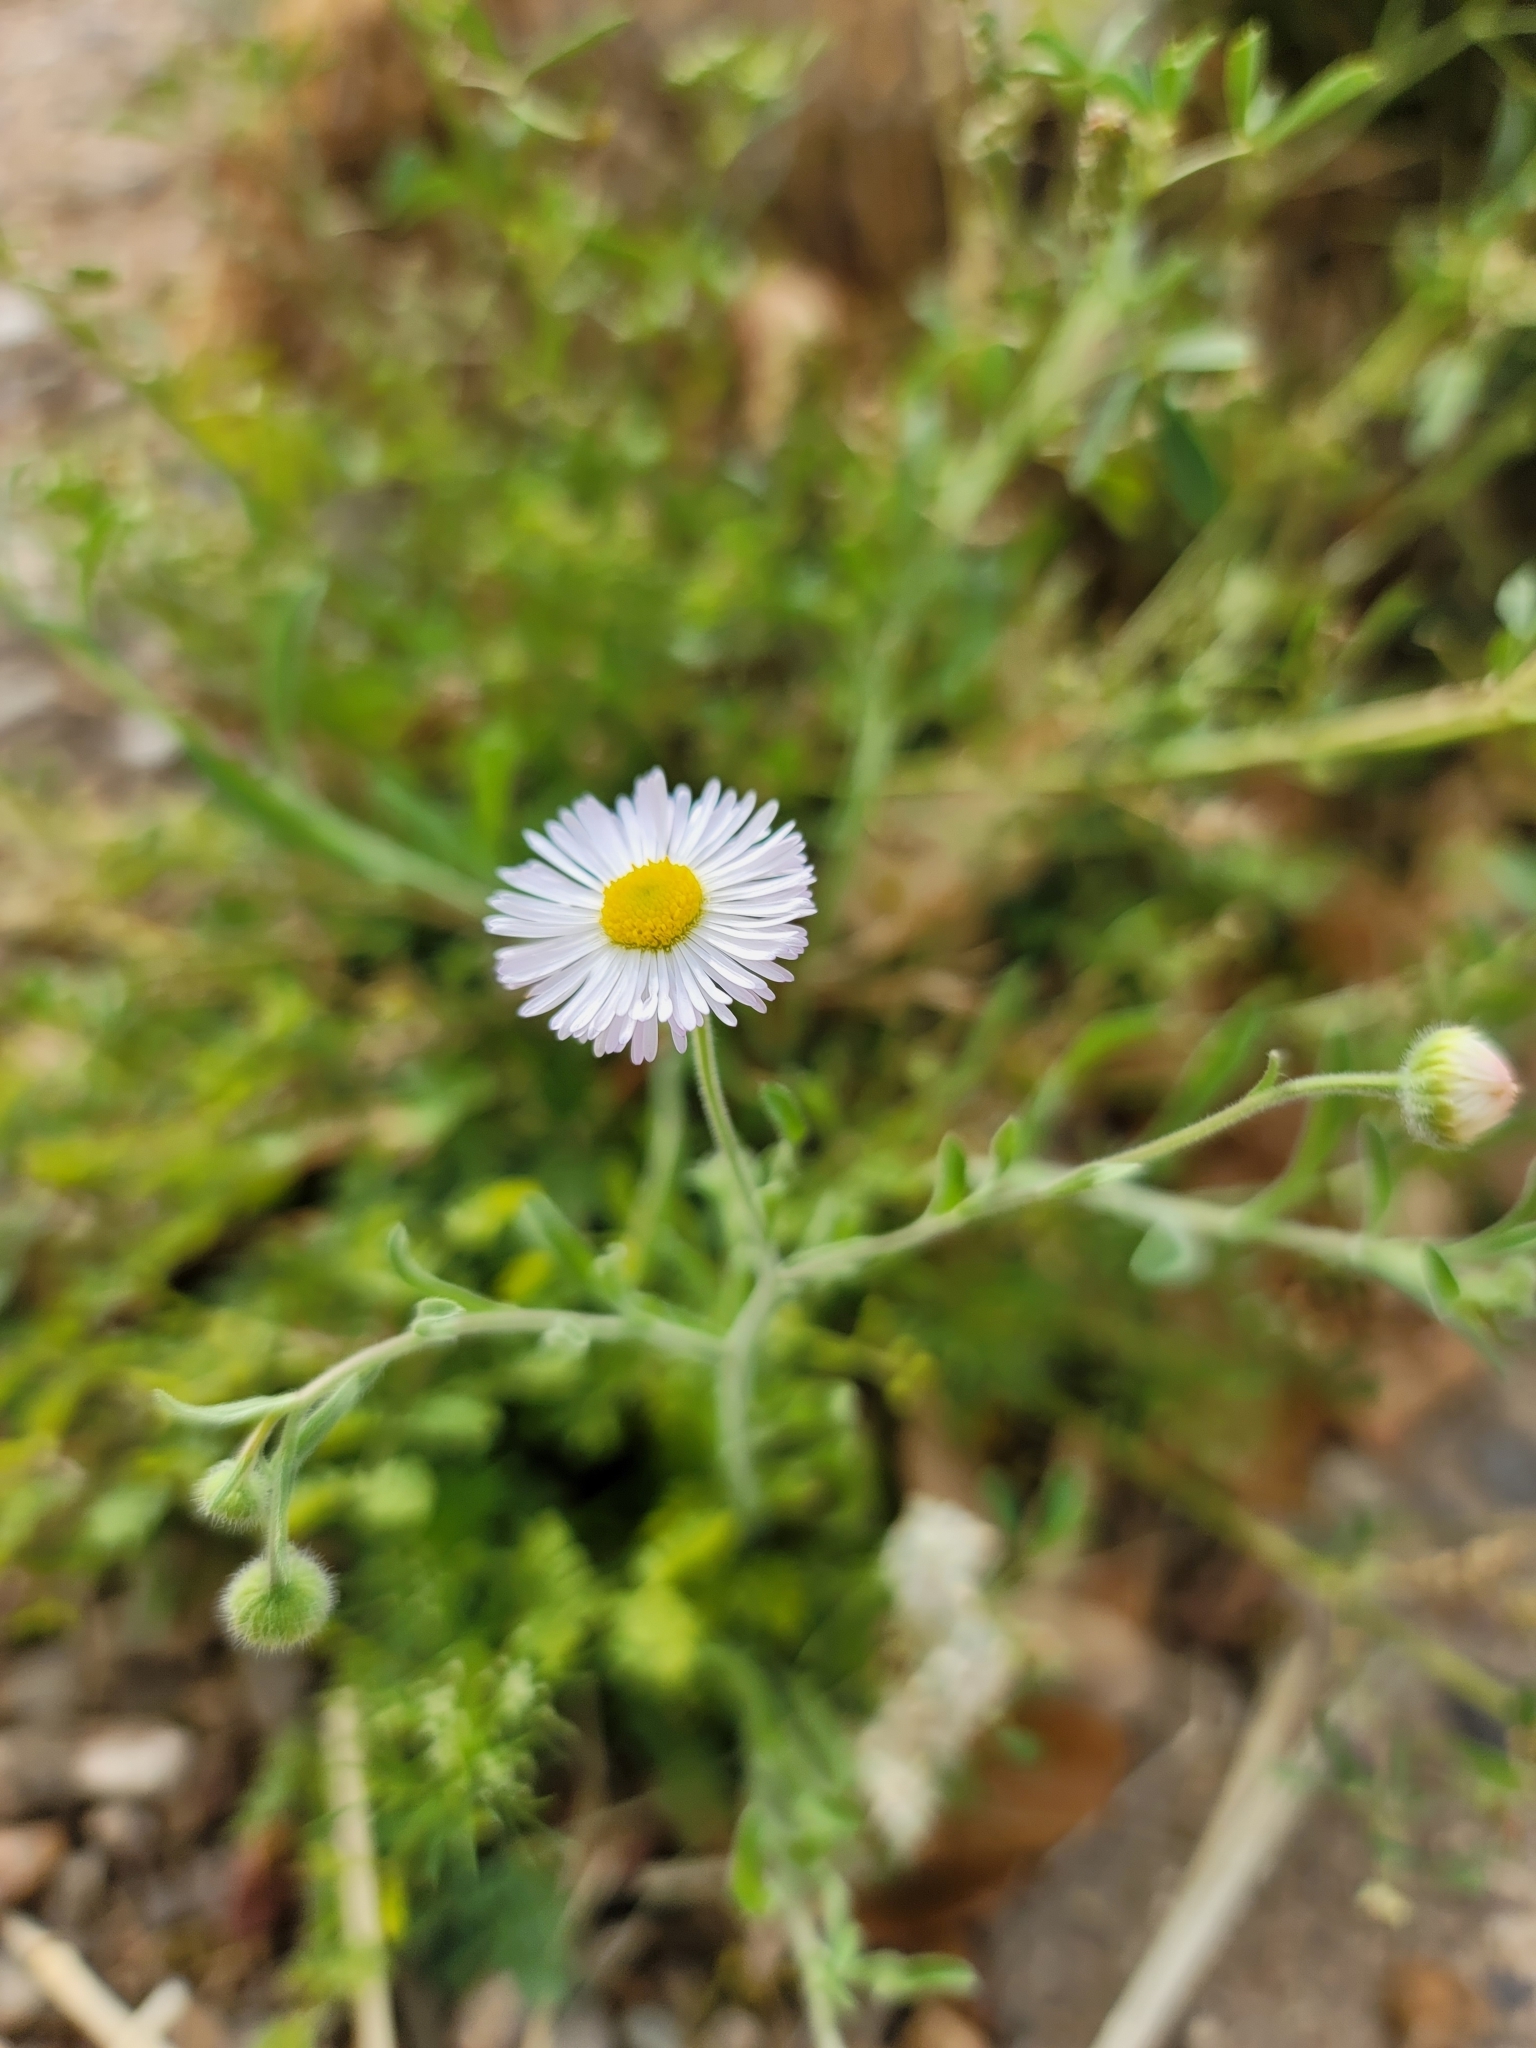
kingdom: Plantae
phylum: Tracheophyta
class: Magnoliopsida
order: Asterales
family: Asteraceae
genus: Erigeron
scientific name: Erigeron divergens
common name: Diffuse fleabane
